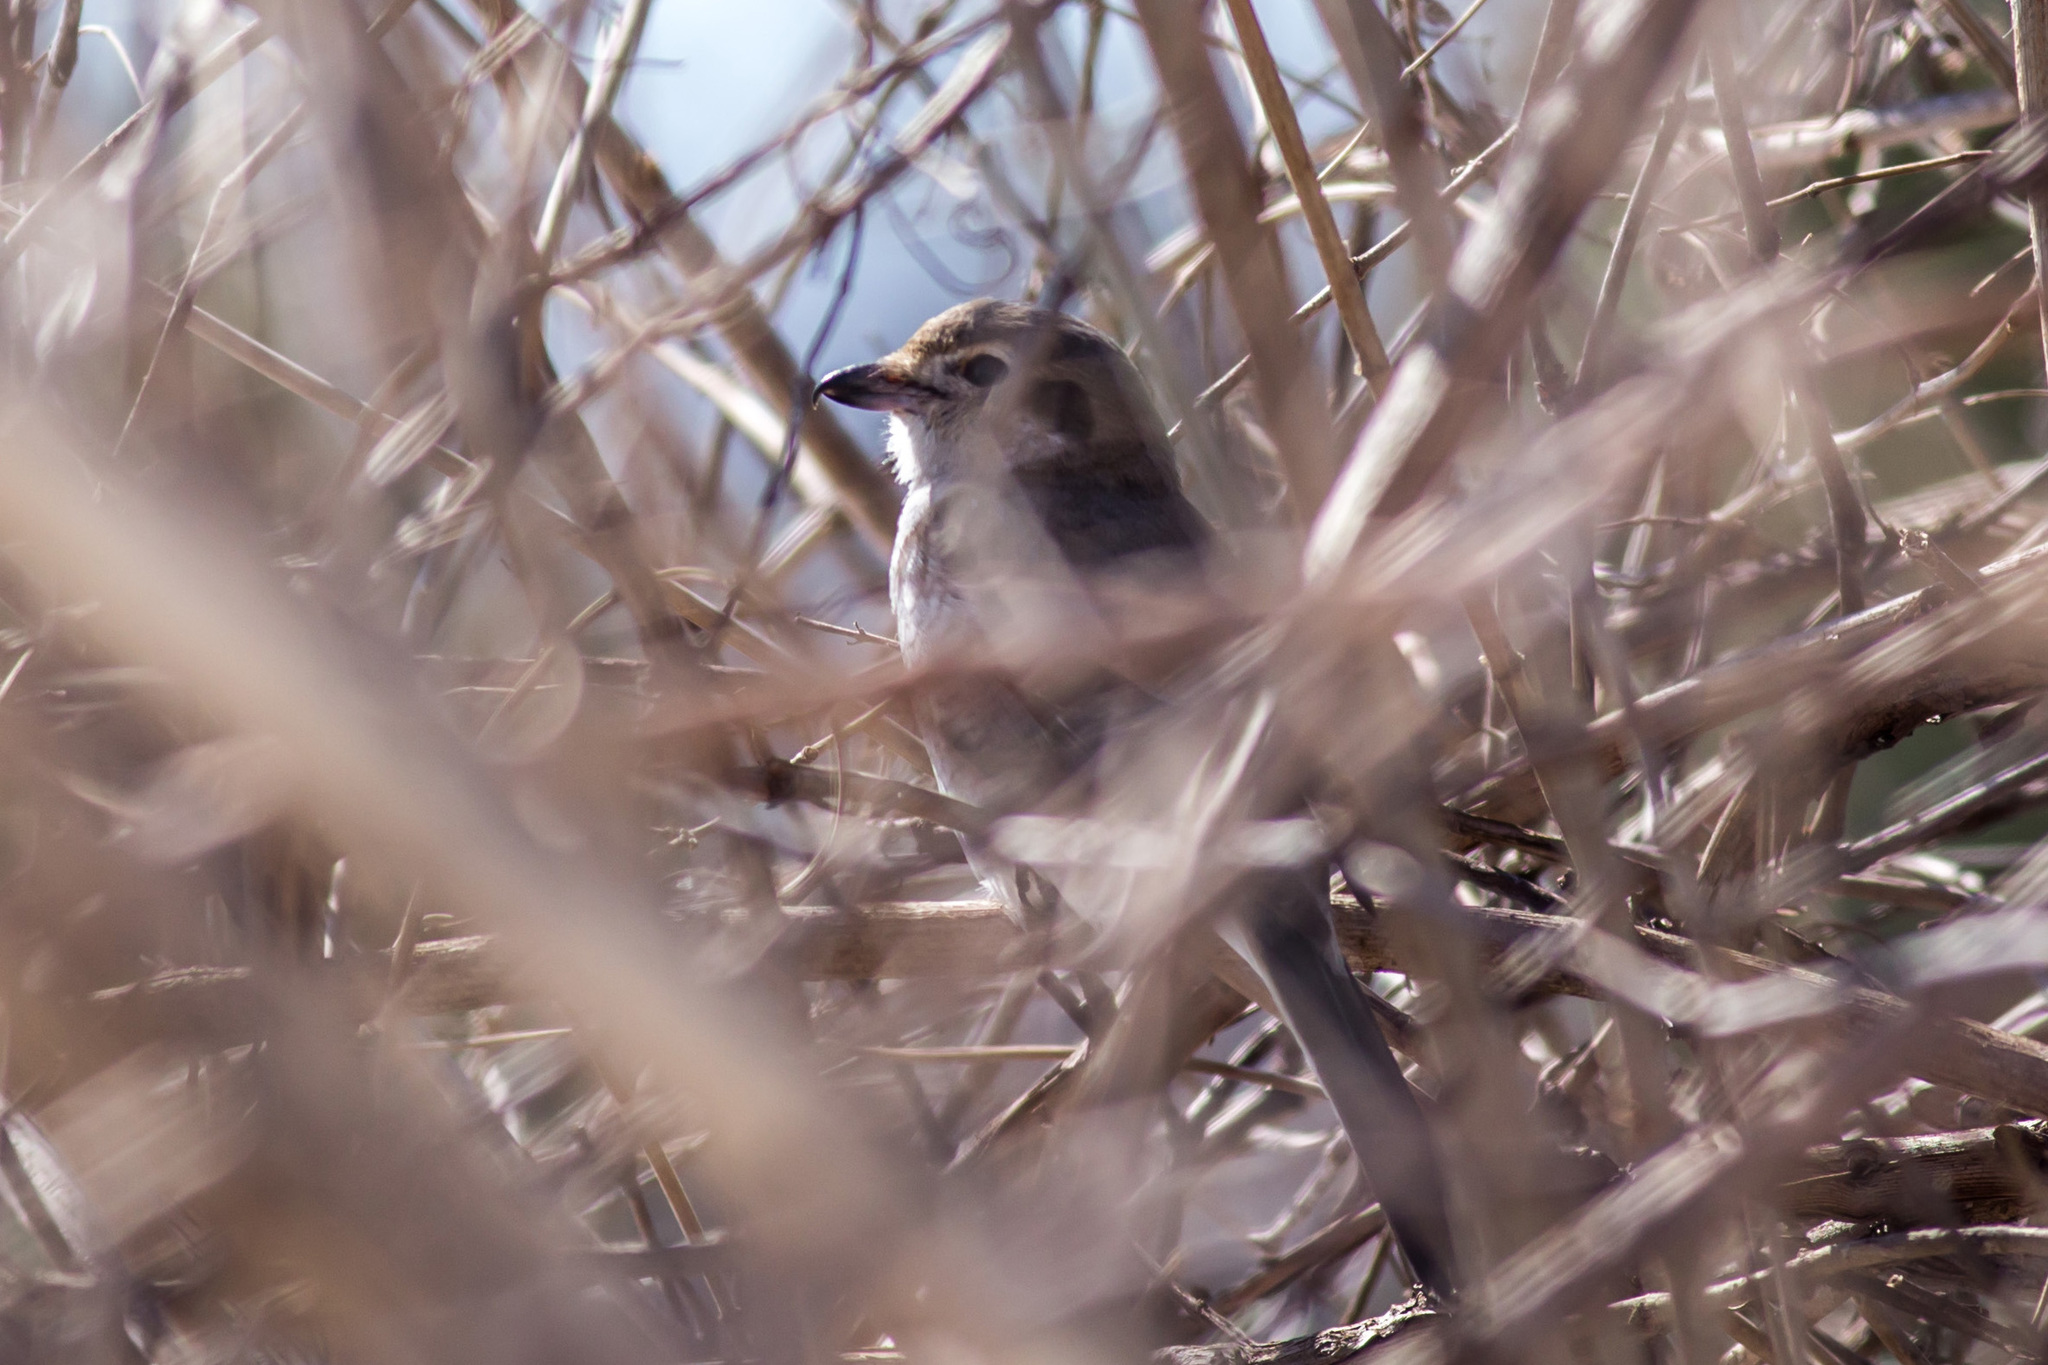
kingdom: Animalia
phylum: Chordata
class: Aves
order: Passeriformes
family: Laniidae
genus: Lanius
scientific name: Lanius borealis
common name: Northern shrike
